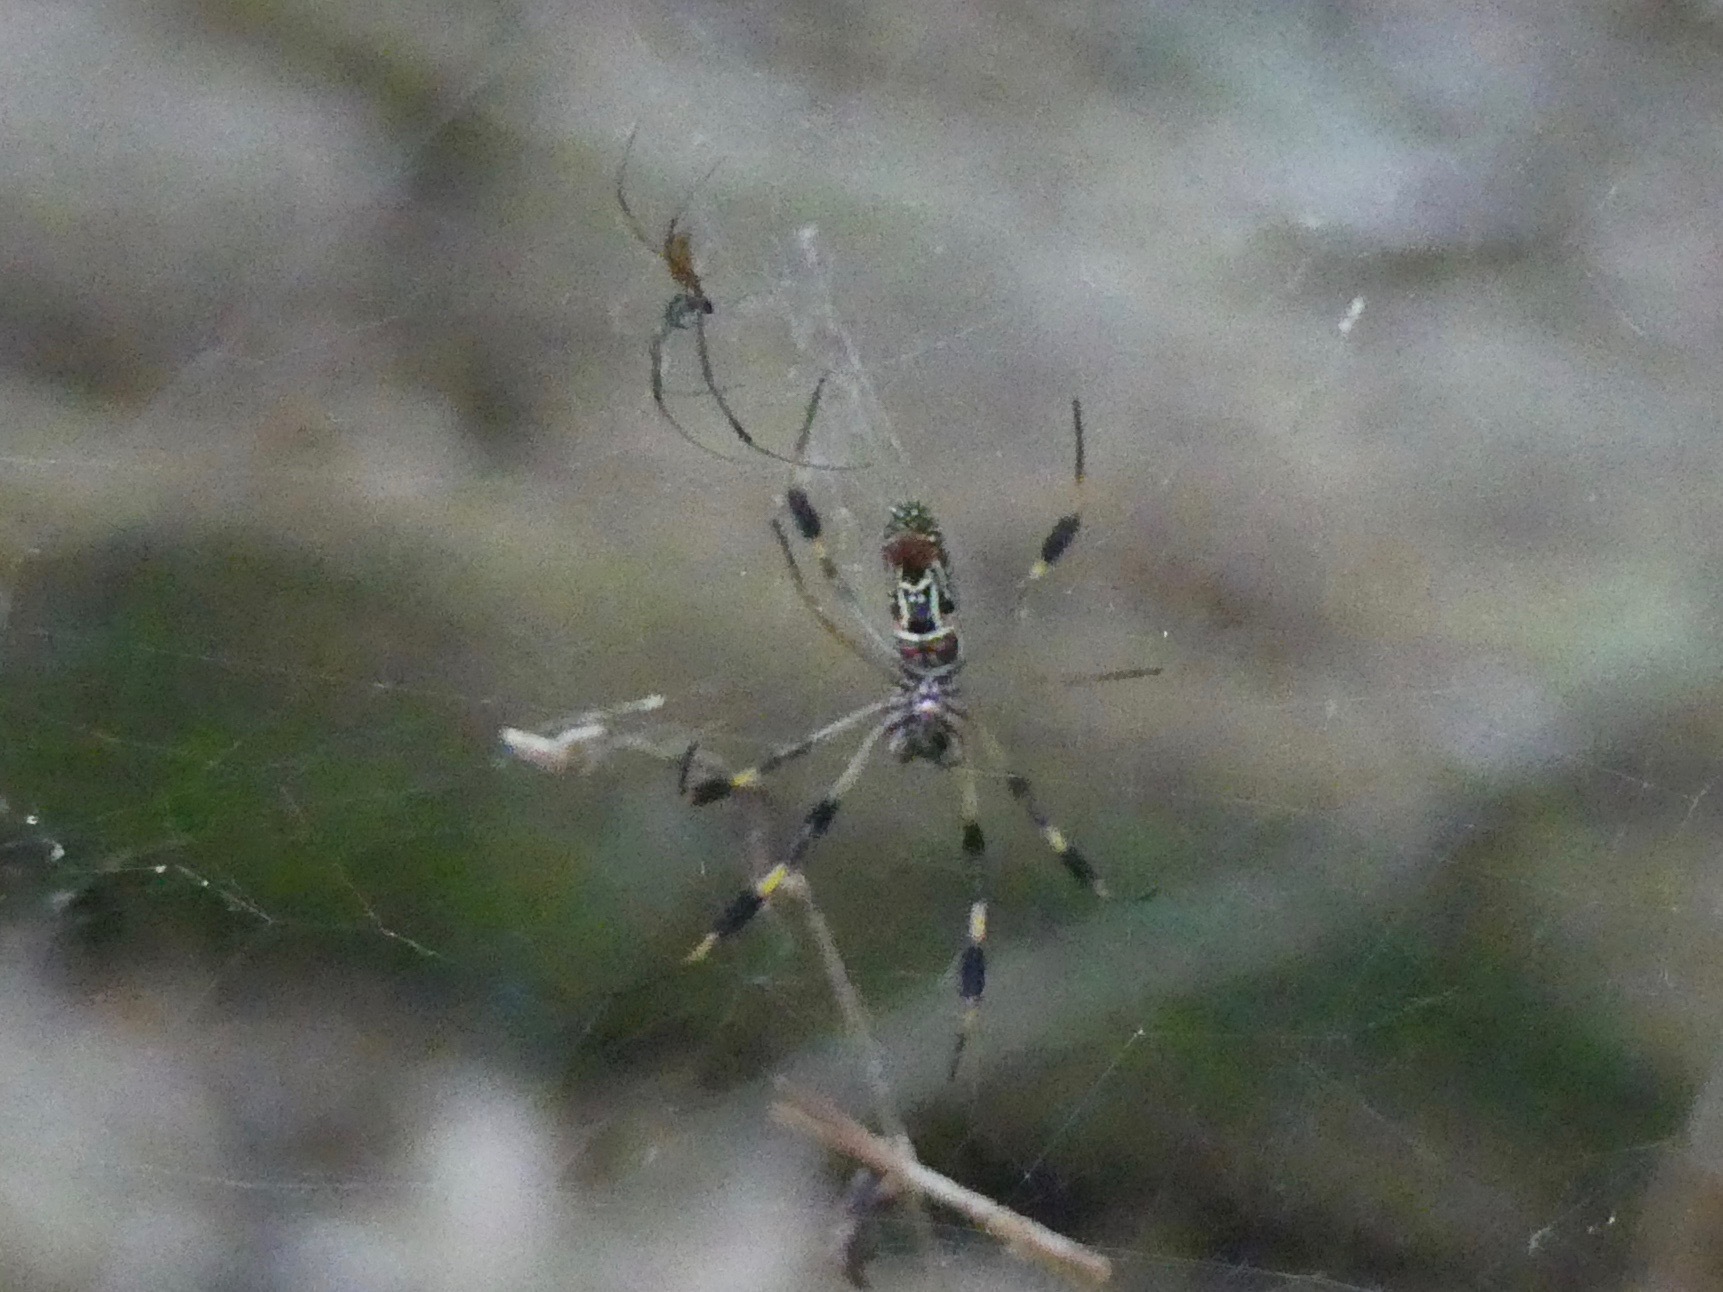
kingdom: Animalia
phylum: Arthropoda
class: Arachnida
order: Araneae
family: Araneidae
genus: Trichonephila
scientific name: Trichonephila clavipes
